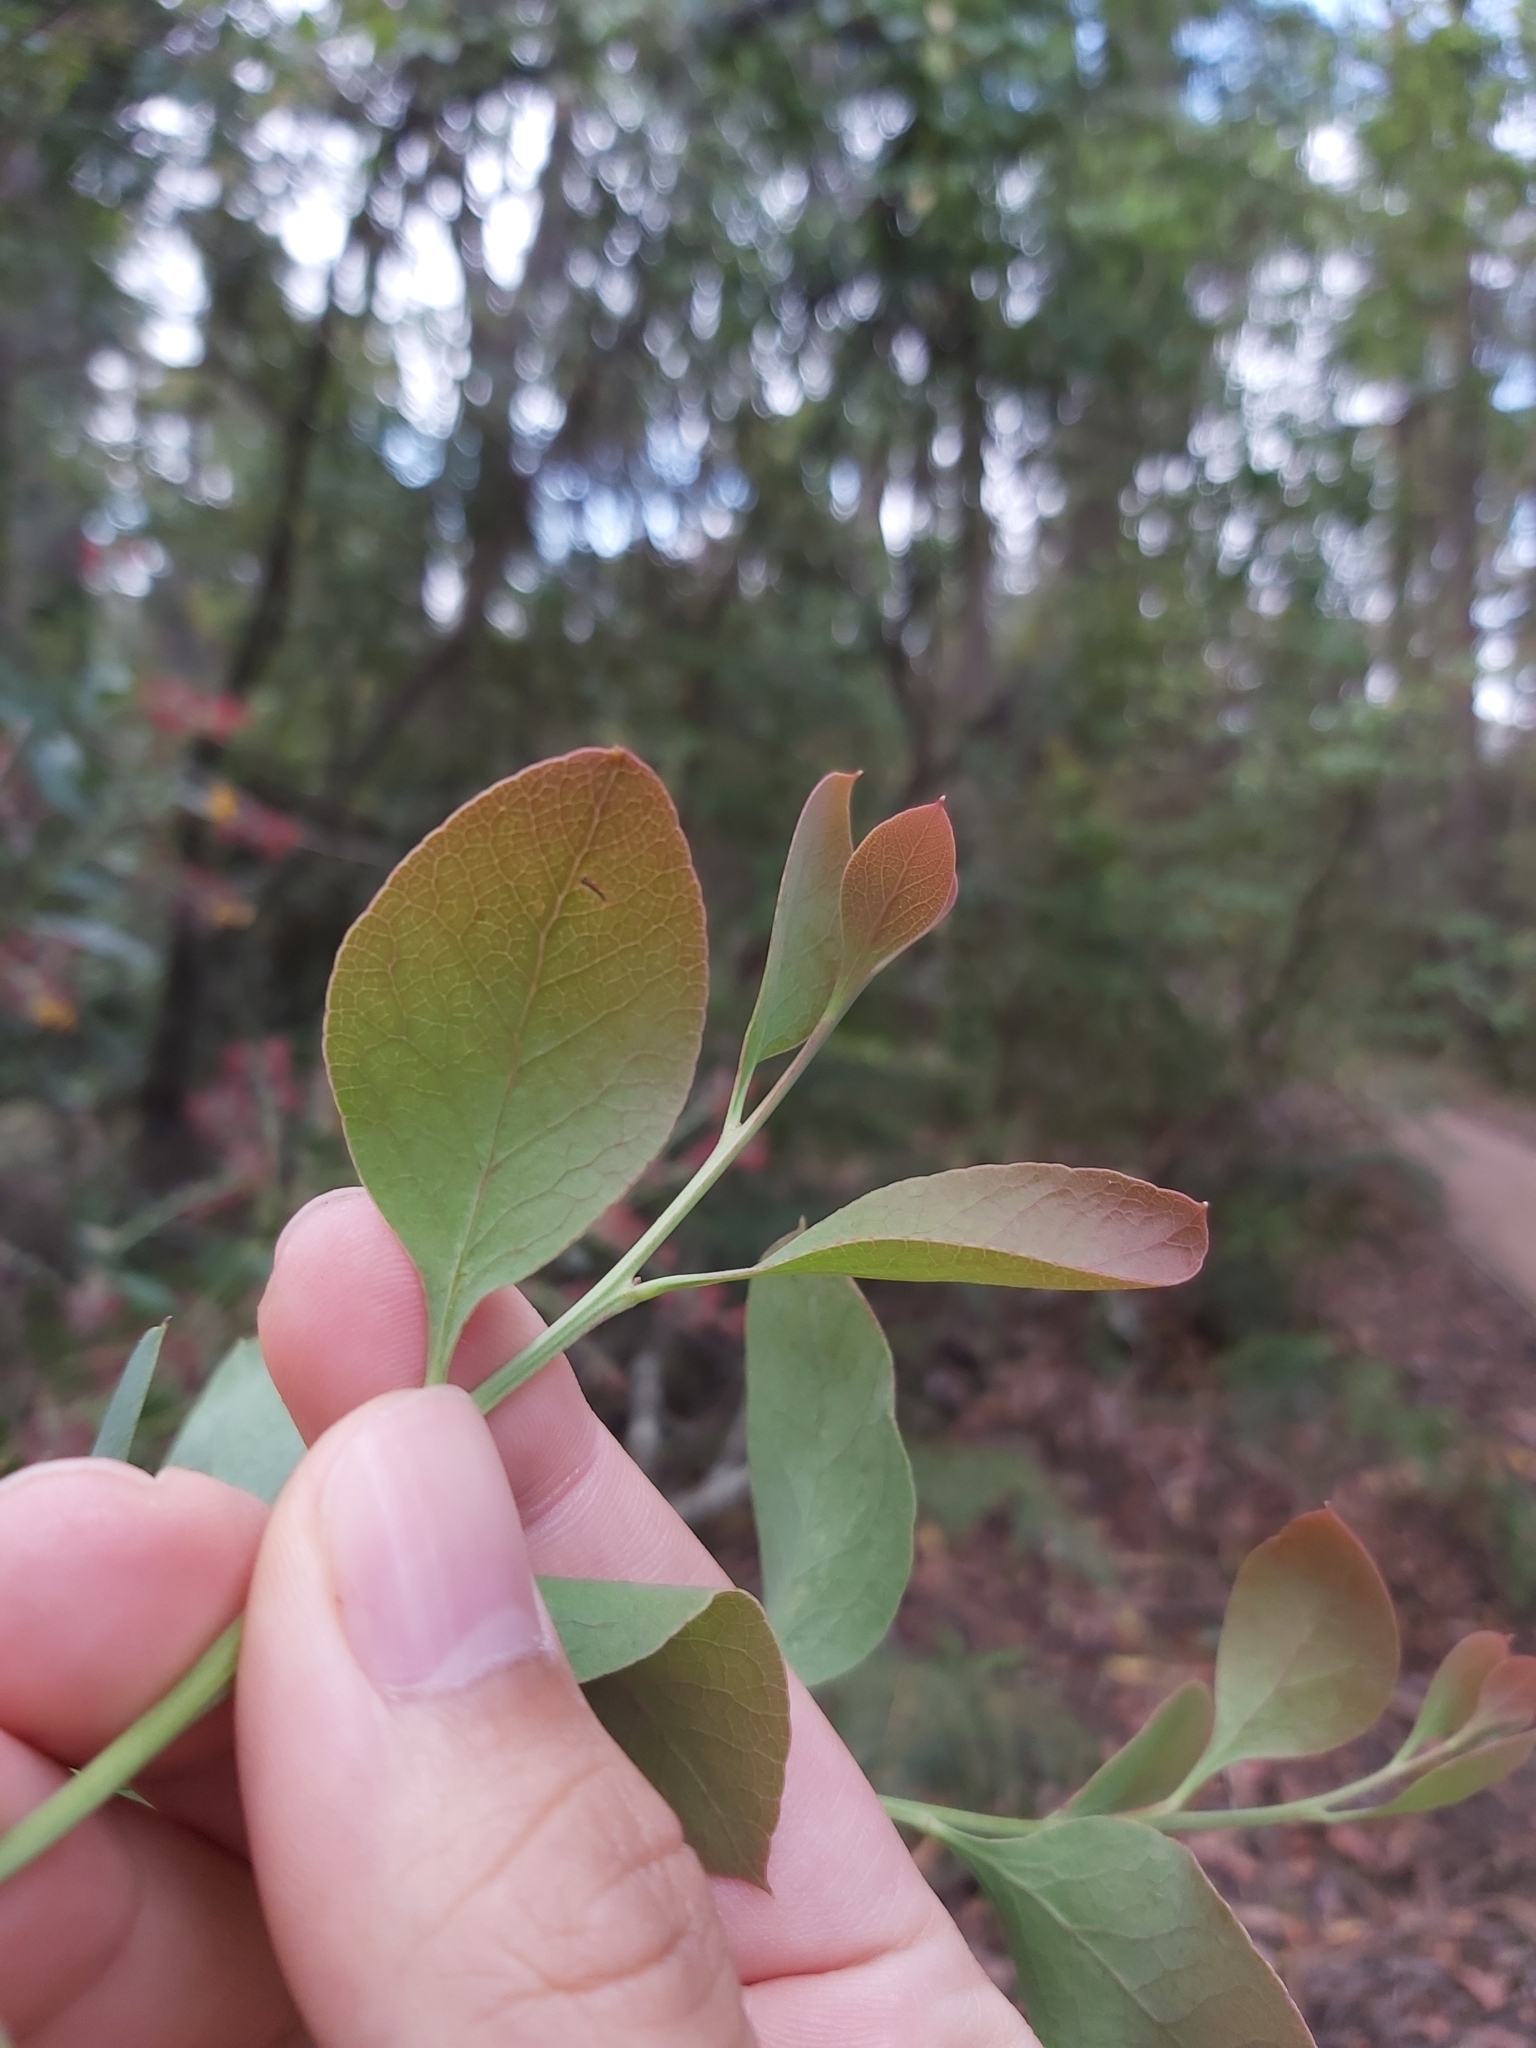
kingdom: Plantae
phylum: Tracheophyta
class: Magnoliopsida
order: Fabales
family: Fabaceae
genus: Daviesia
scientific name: Daviesia latifolia
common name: Hop bitter-pea
